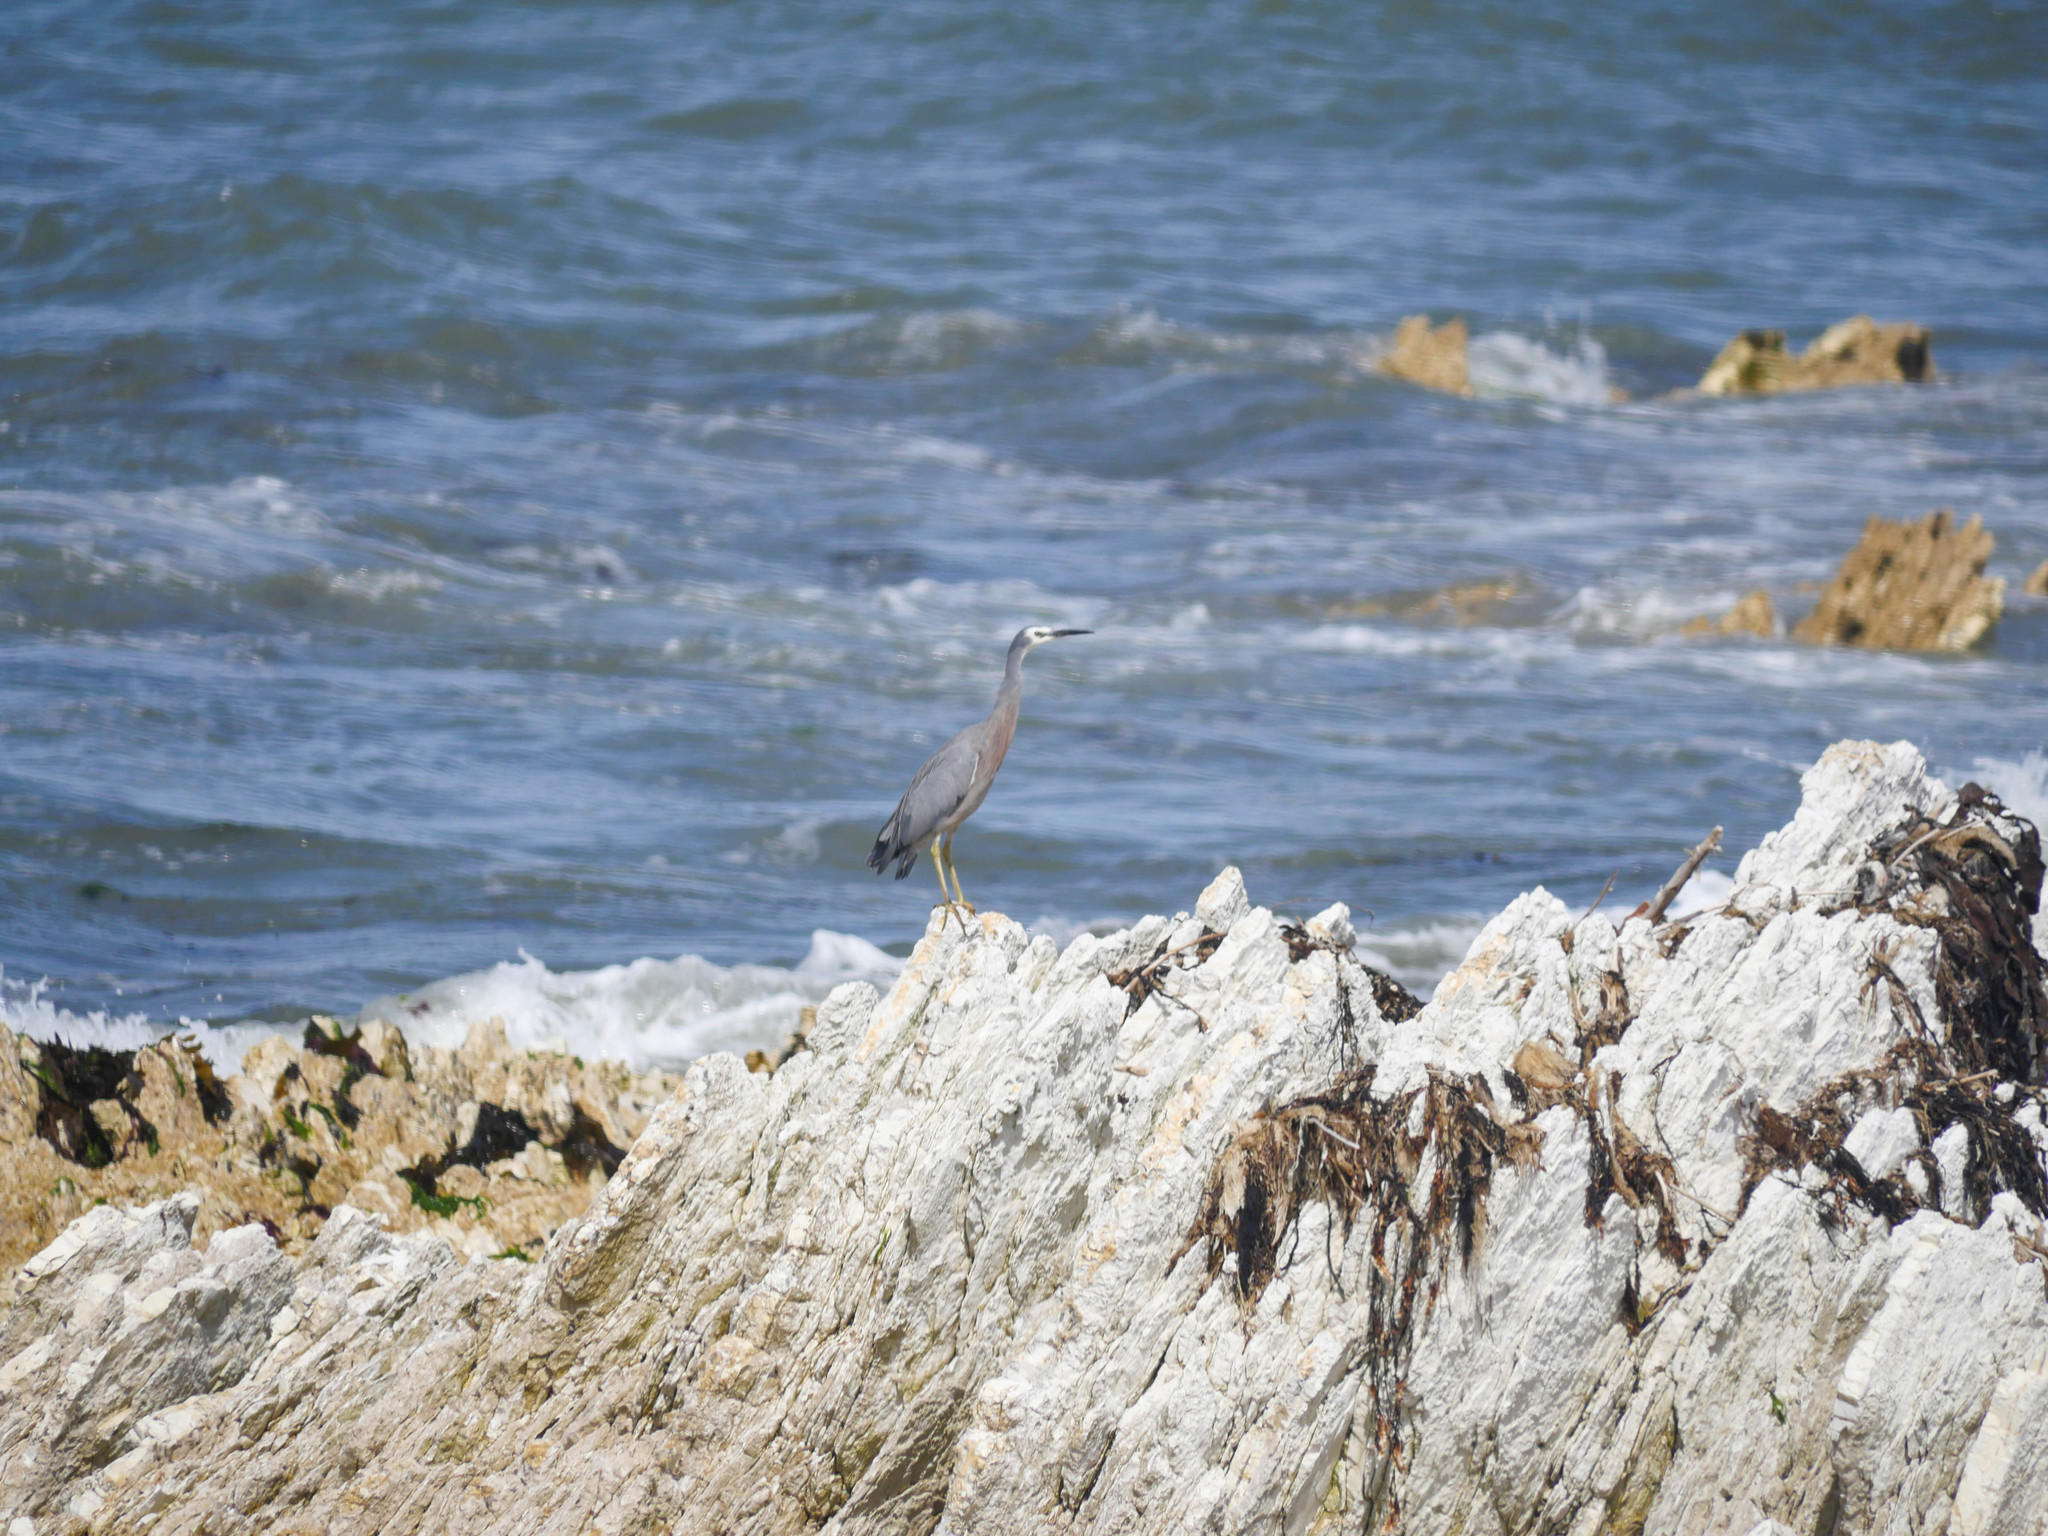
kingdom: Animalia
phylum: Chordata
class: Aves
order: Pelecaniformes
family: Ardeidae
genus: Egretta
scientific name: Egretta novaehollandiae
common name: White-faced heron
